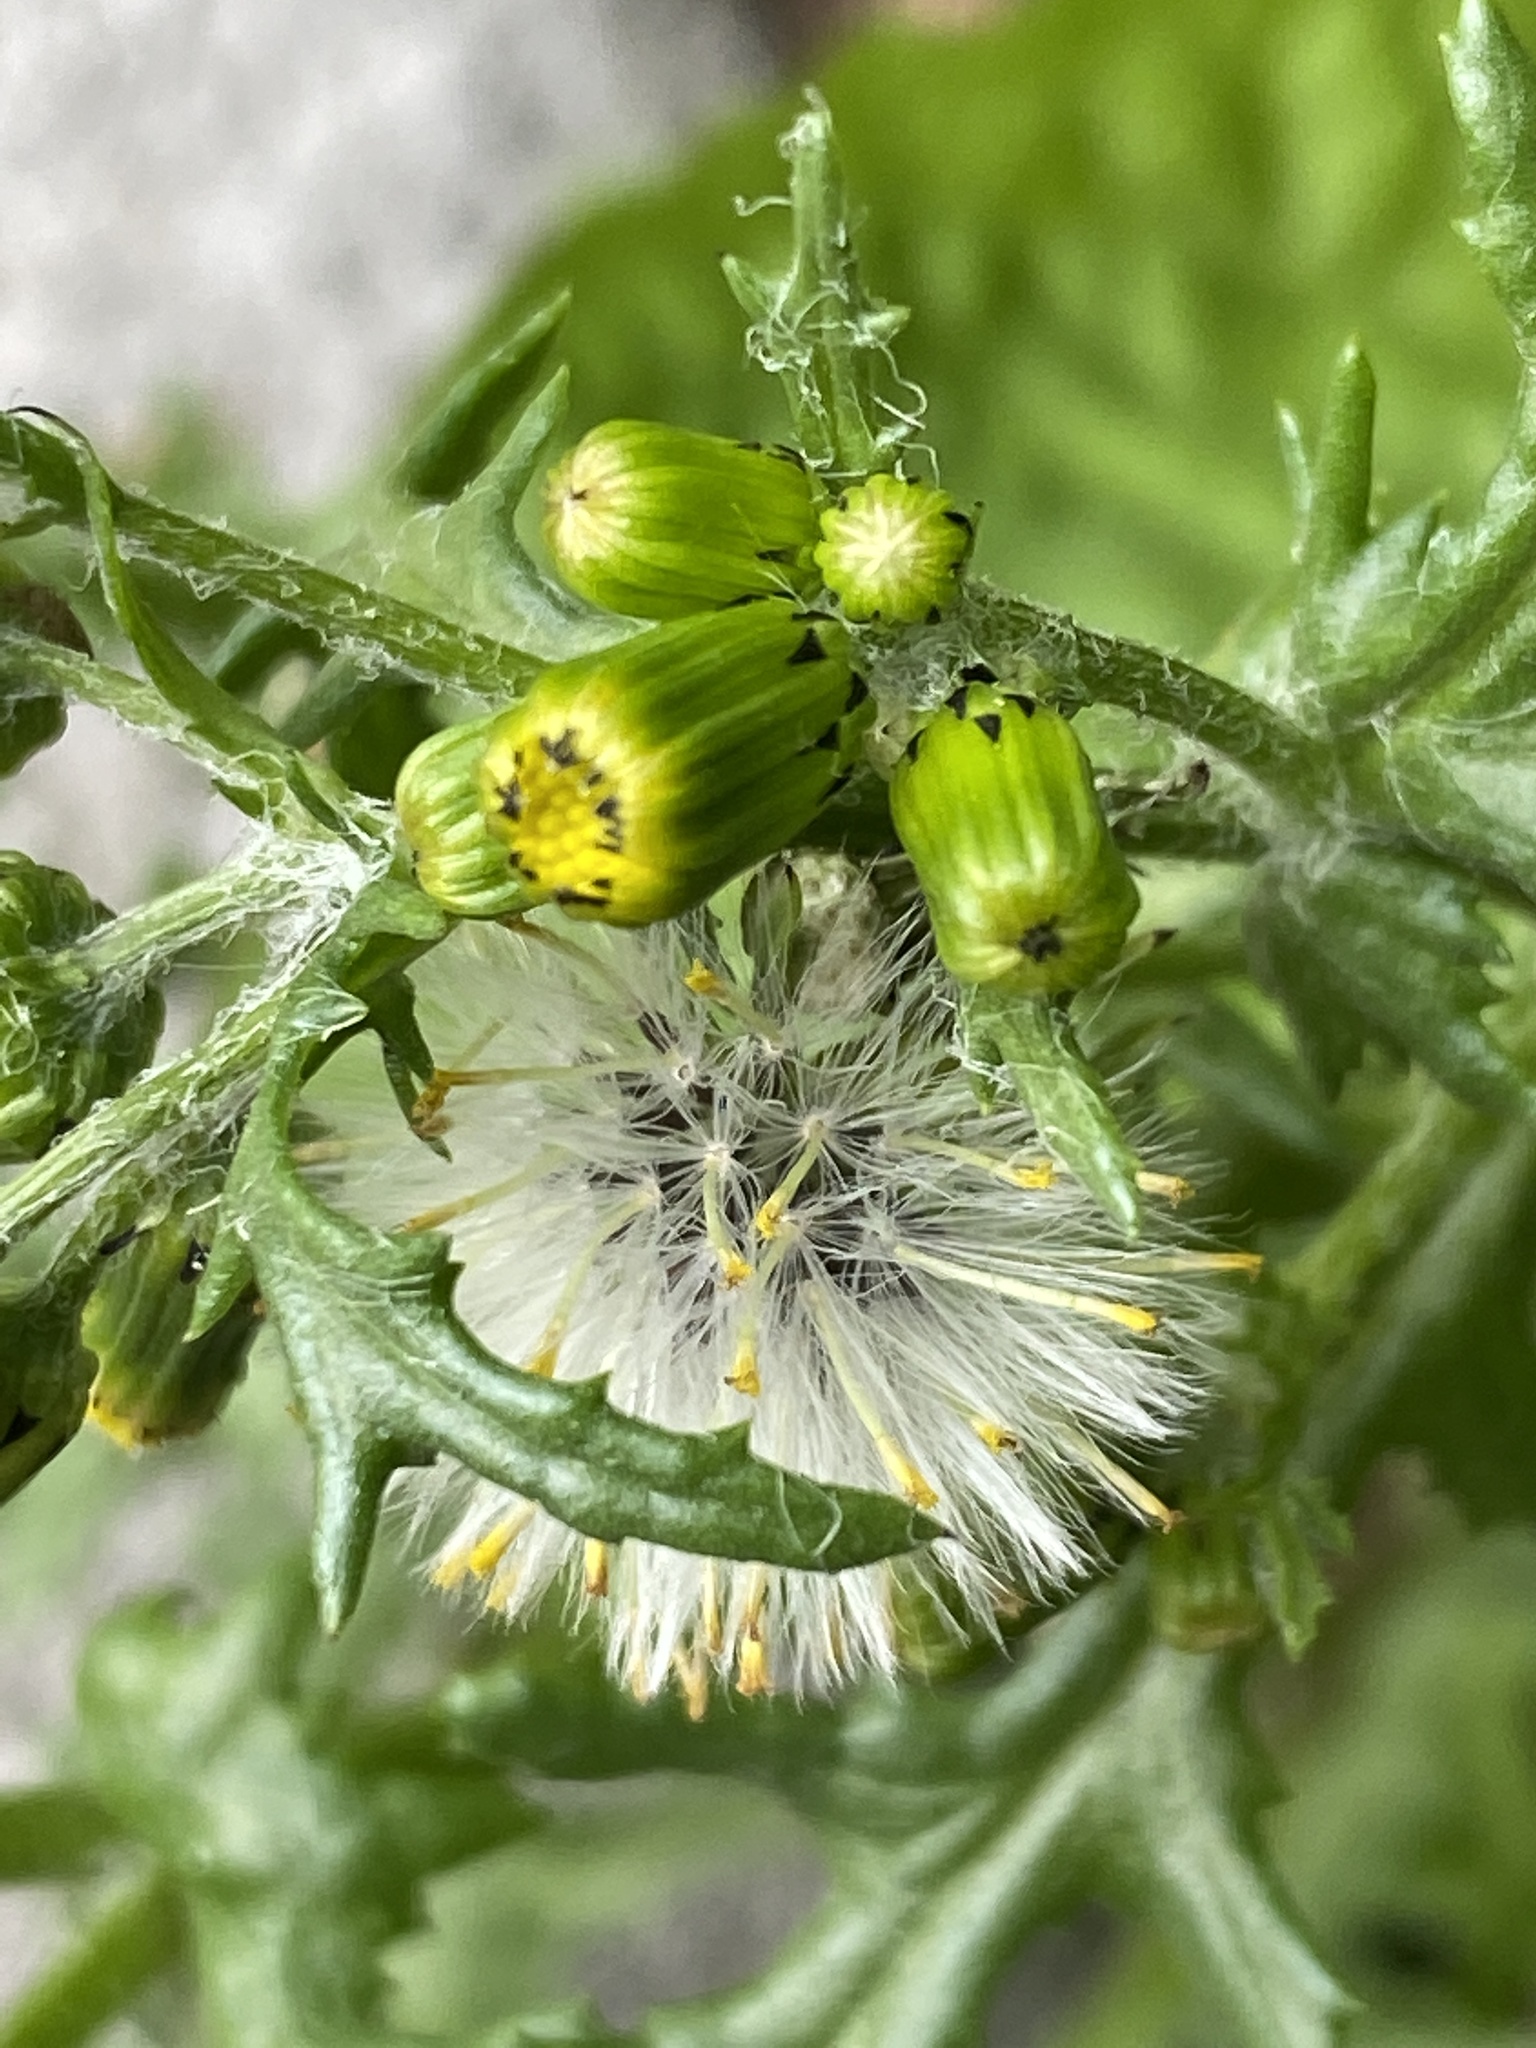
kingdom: Plantae
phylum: Tracheophyta
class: Magnoliopsida
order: Asterales
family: Asteraceae
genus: Senecio
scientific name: Senecio vulgaris
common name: Old-man-in-the-spring
